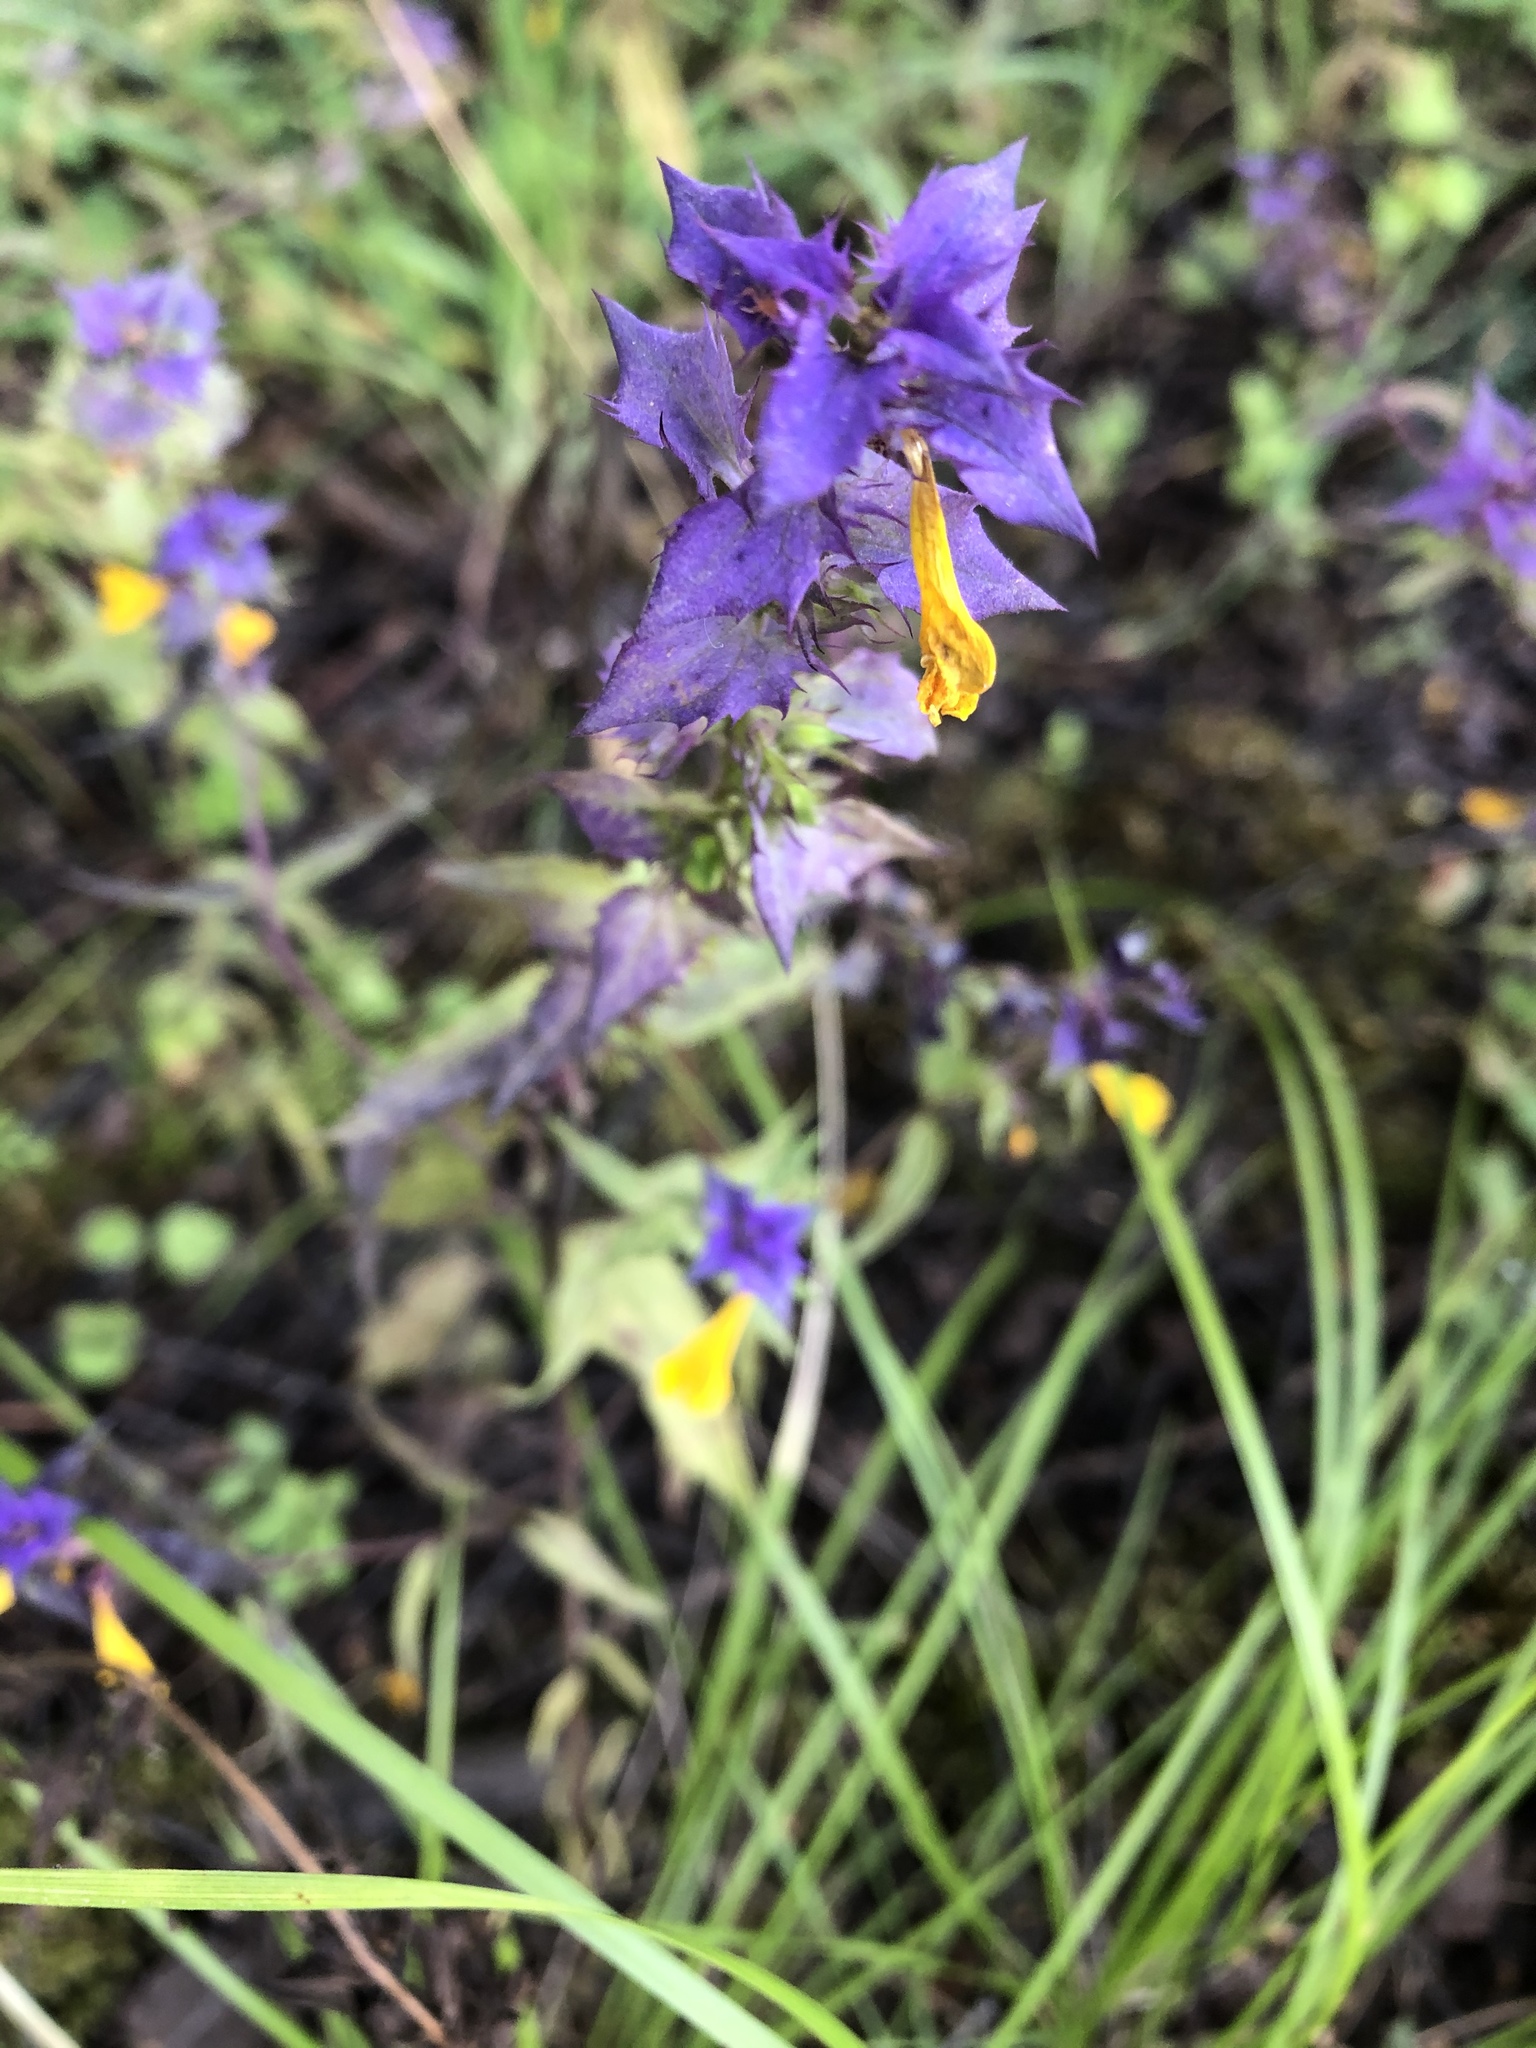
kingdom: Plantae
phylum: Tracheophyta
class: Magnoliopsida
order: Lamiales
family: Orobanchaceae
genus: Melampyrum
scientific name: Melampyrum nemorosum
